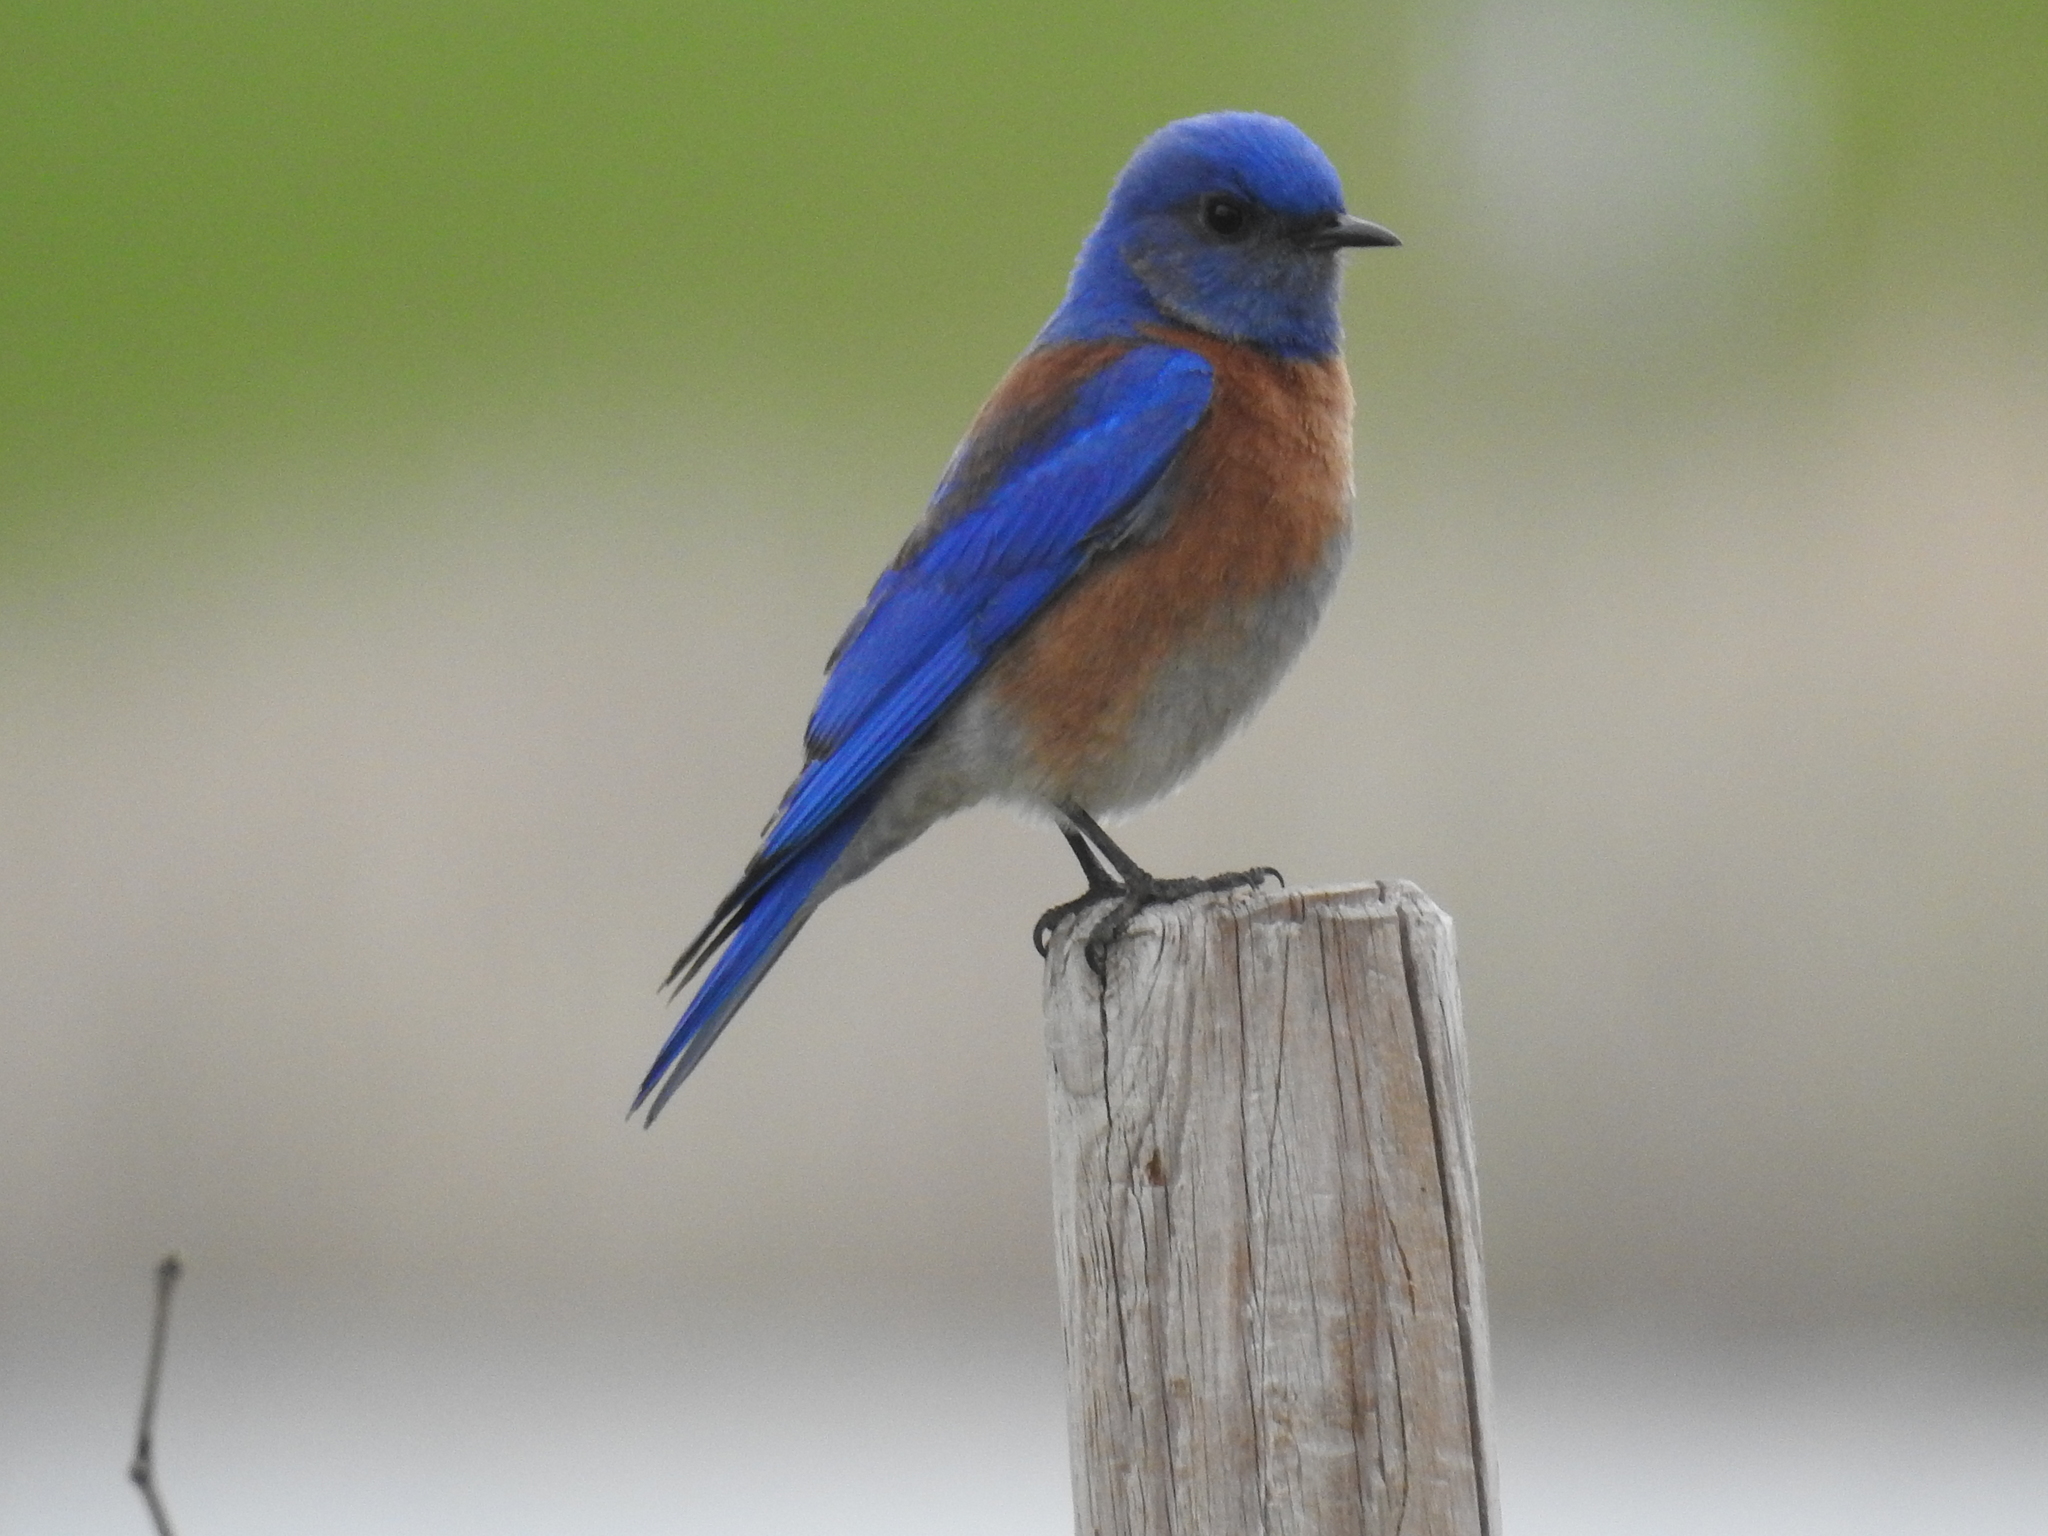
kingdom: Animalia
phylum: Chordata
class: Aves
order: Passeriformes
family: Turdidae
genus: Sialia
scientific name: Sialia mexicana
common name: Western bluebird
